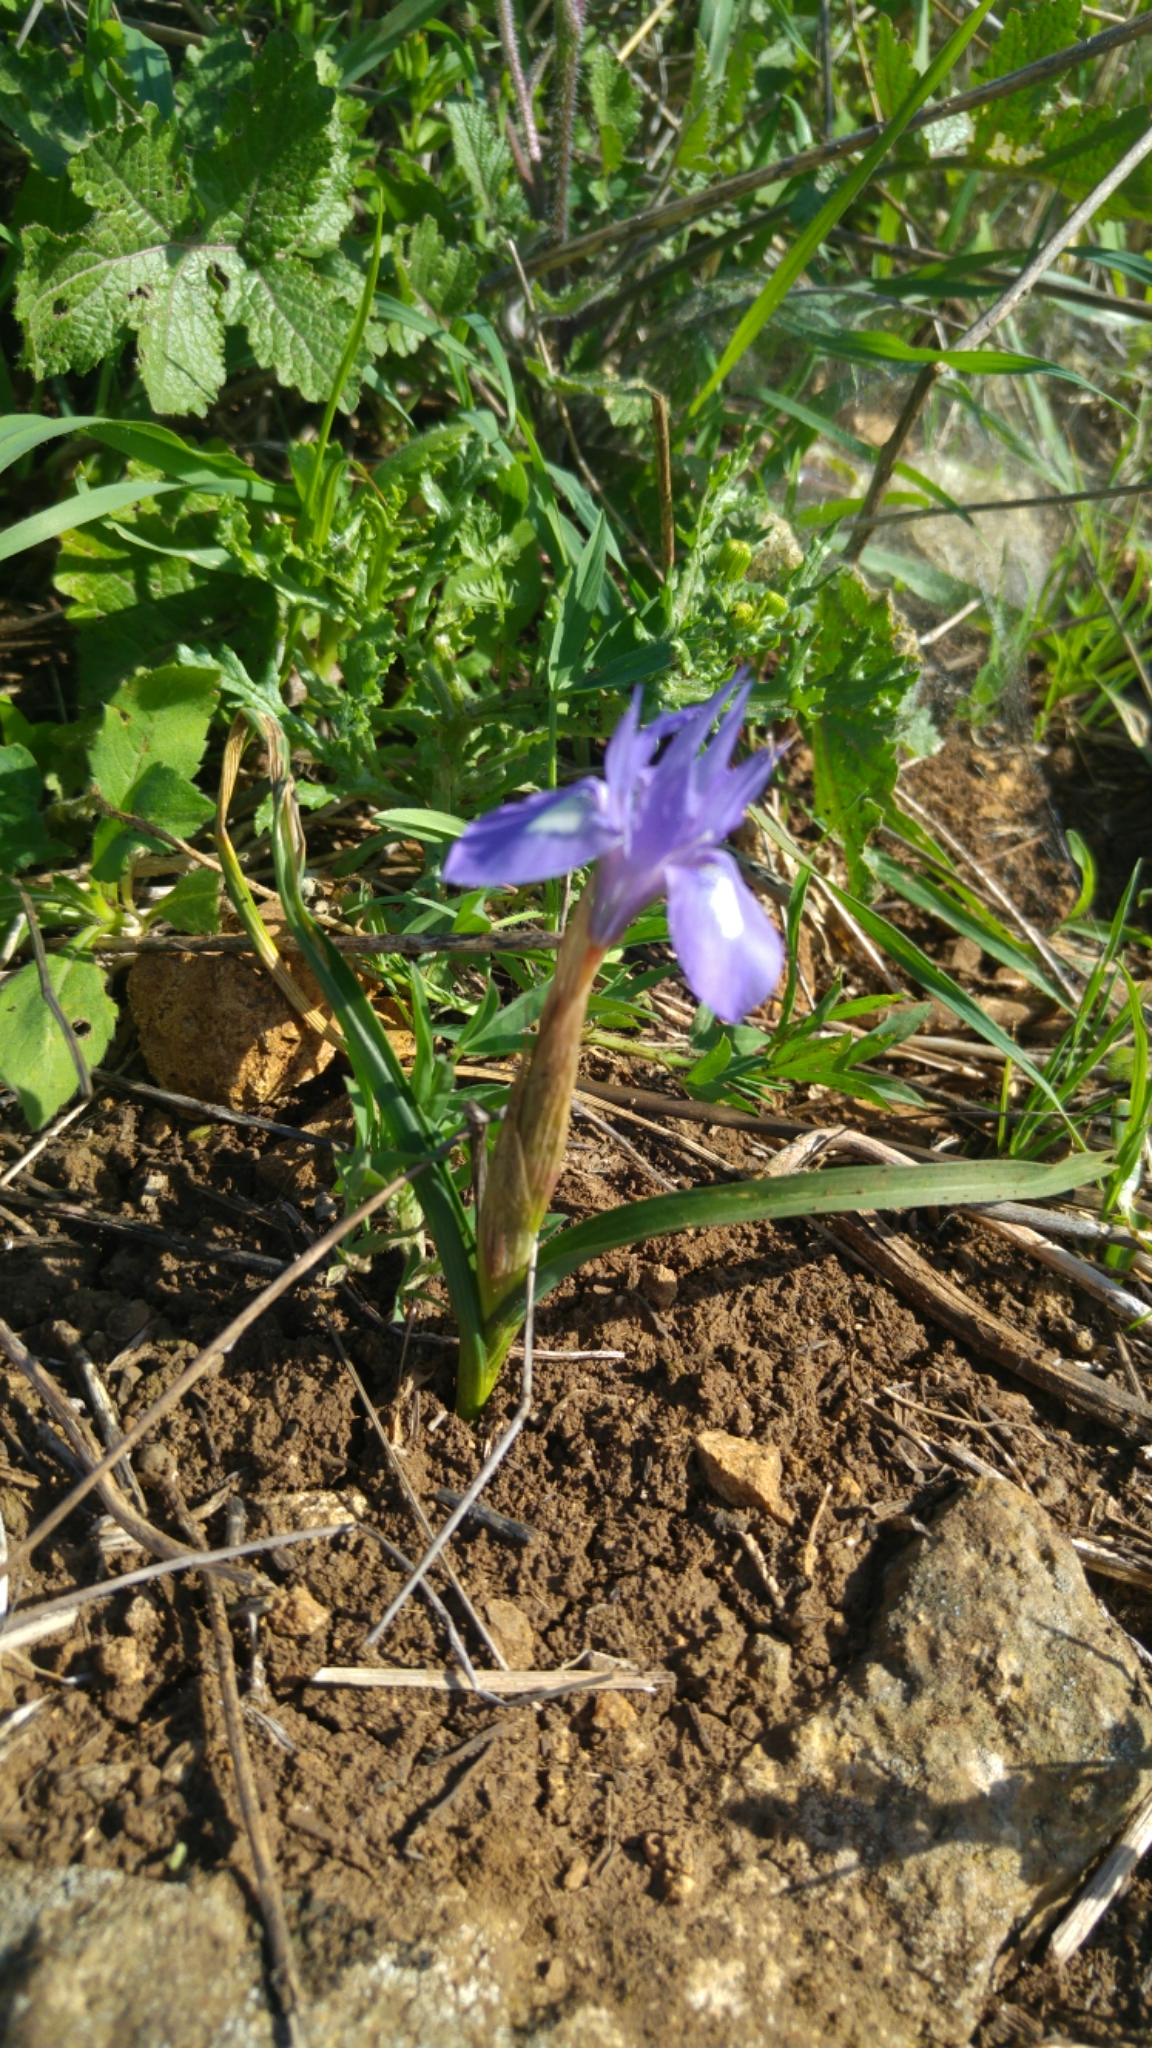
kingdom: Plantae
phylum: Tracheophyta
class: Liliopsida
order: Asparagales
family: Iridaceae
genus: Moraea
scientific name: Moraea sisyrinchium
